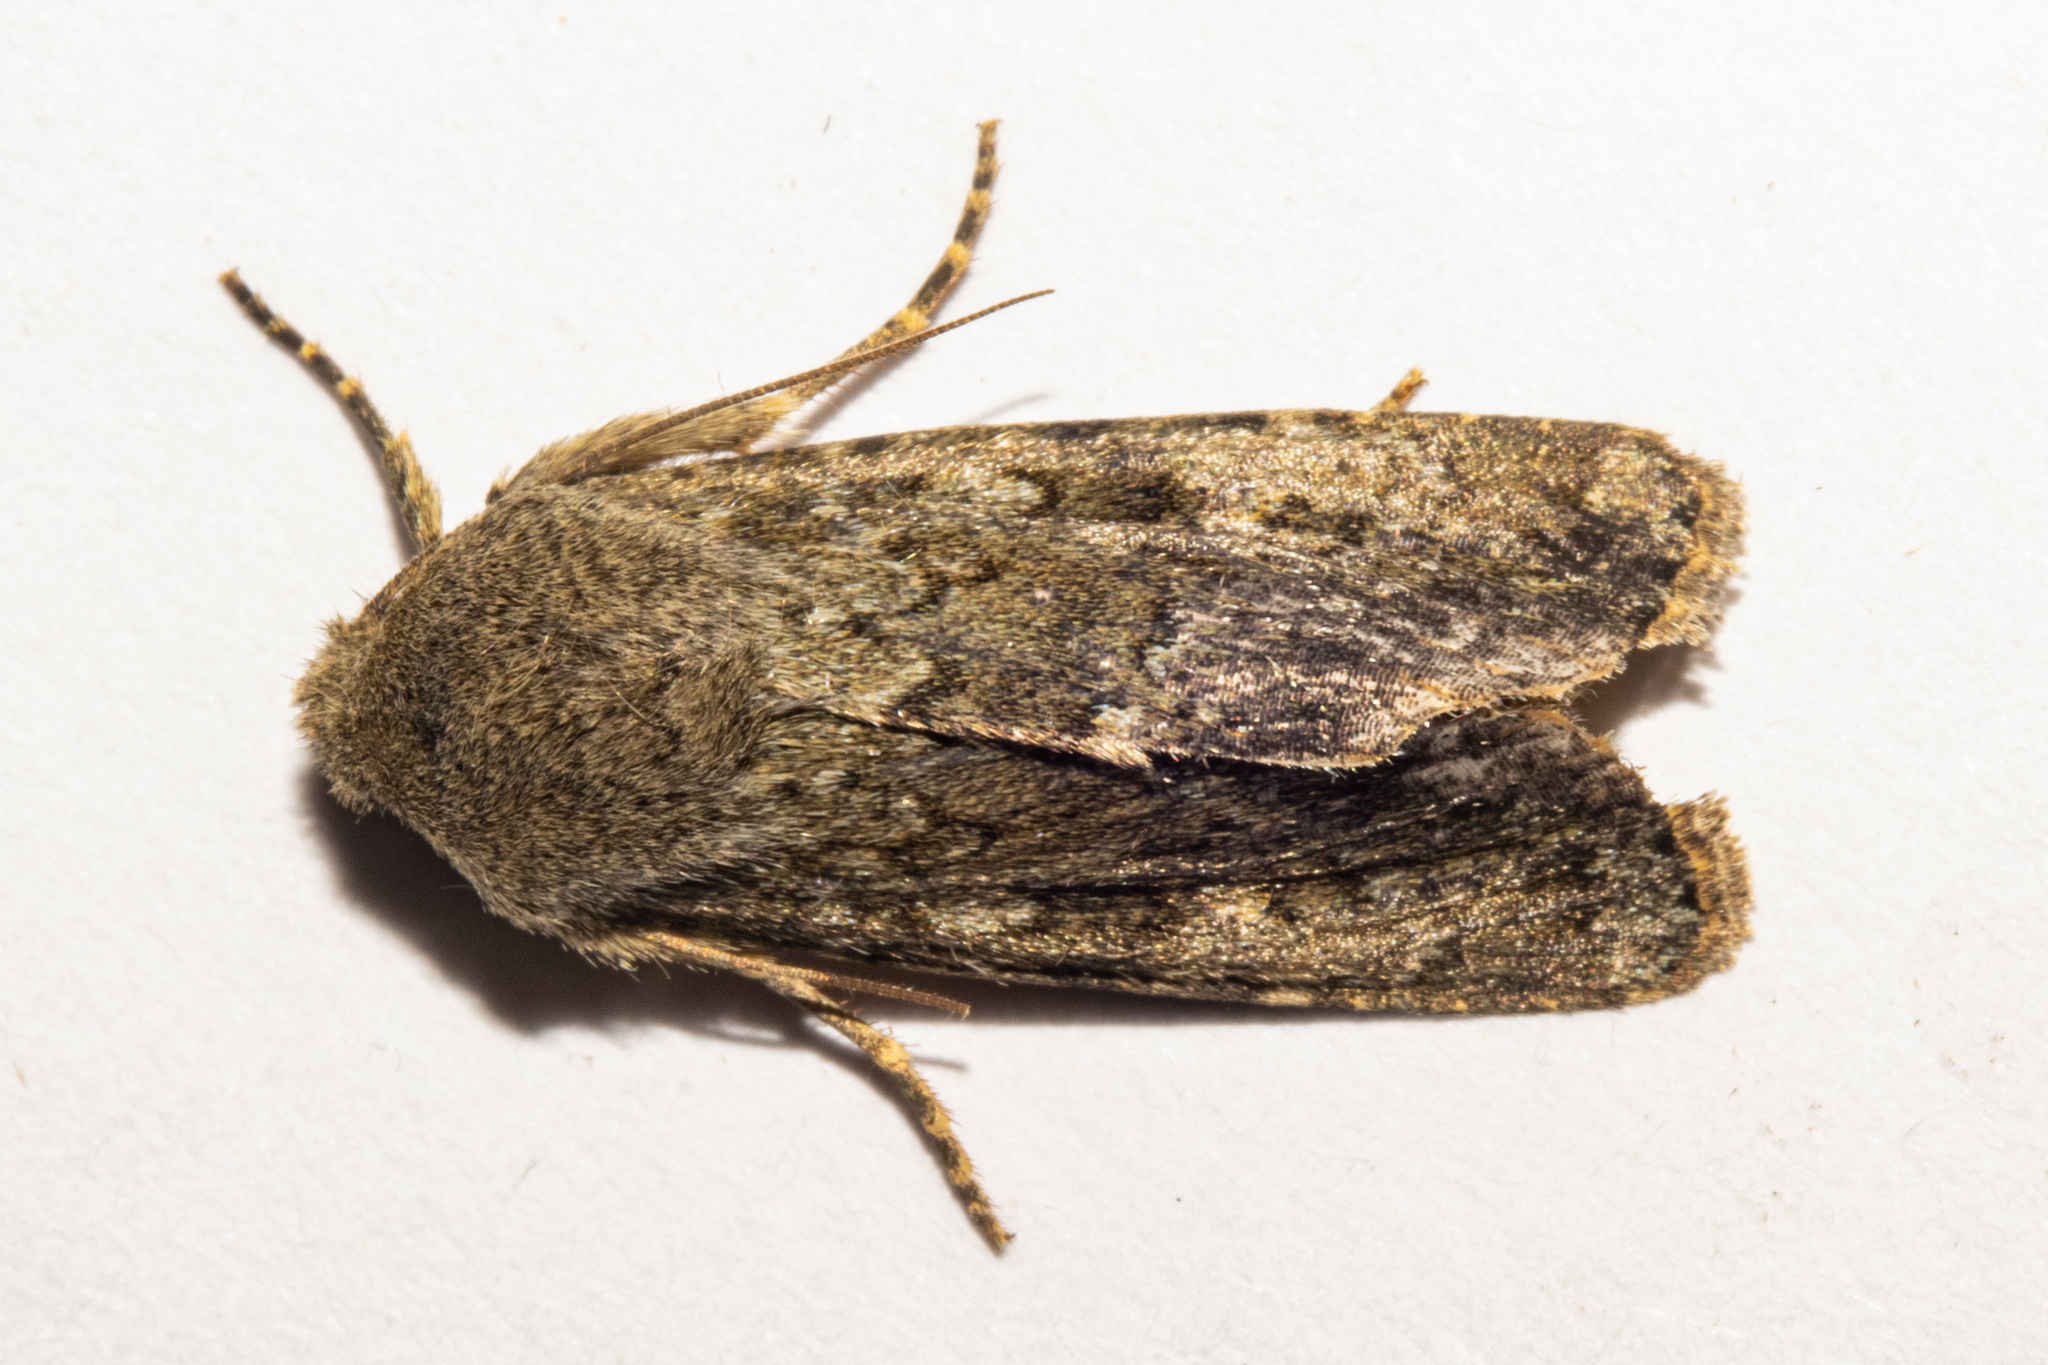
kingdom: Animalia
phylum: Arthropoda
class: Insecta
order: Lepidoptera
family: Noctuidae
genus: Ichneutica
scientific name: Ichneutica moderata
